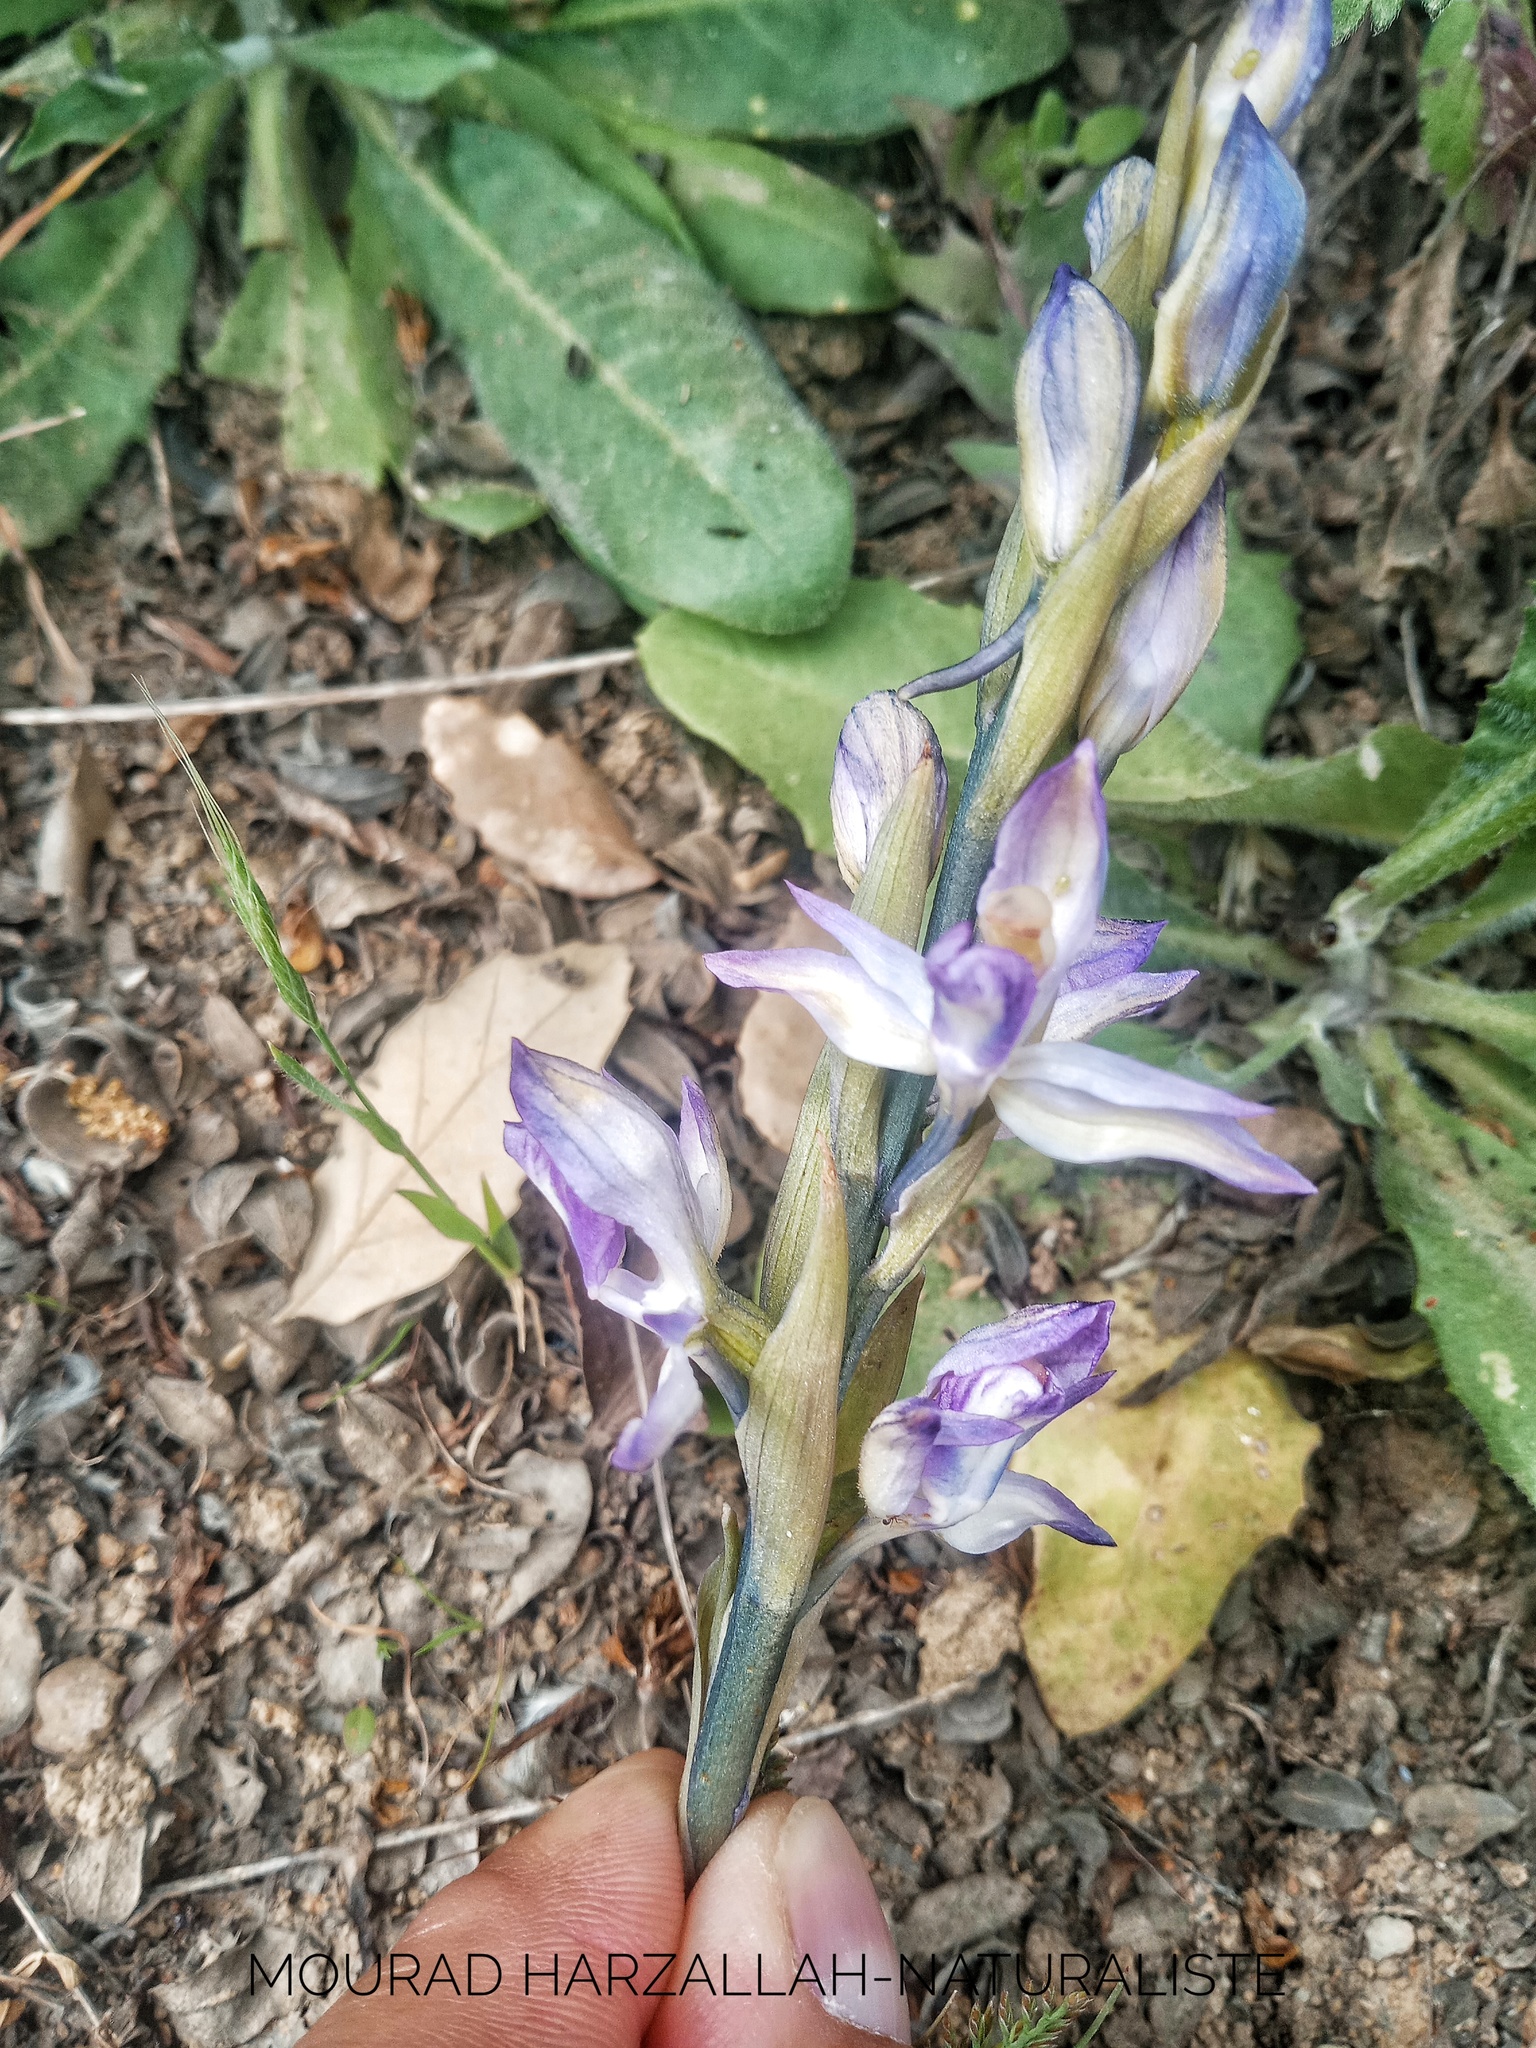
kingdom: Plantae
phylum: Tracheophyta
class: Liliopsida
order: Asparagales
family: Orchidaceae
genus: Limodorum
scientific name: Limodorum abortivum
